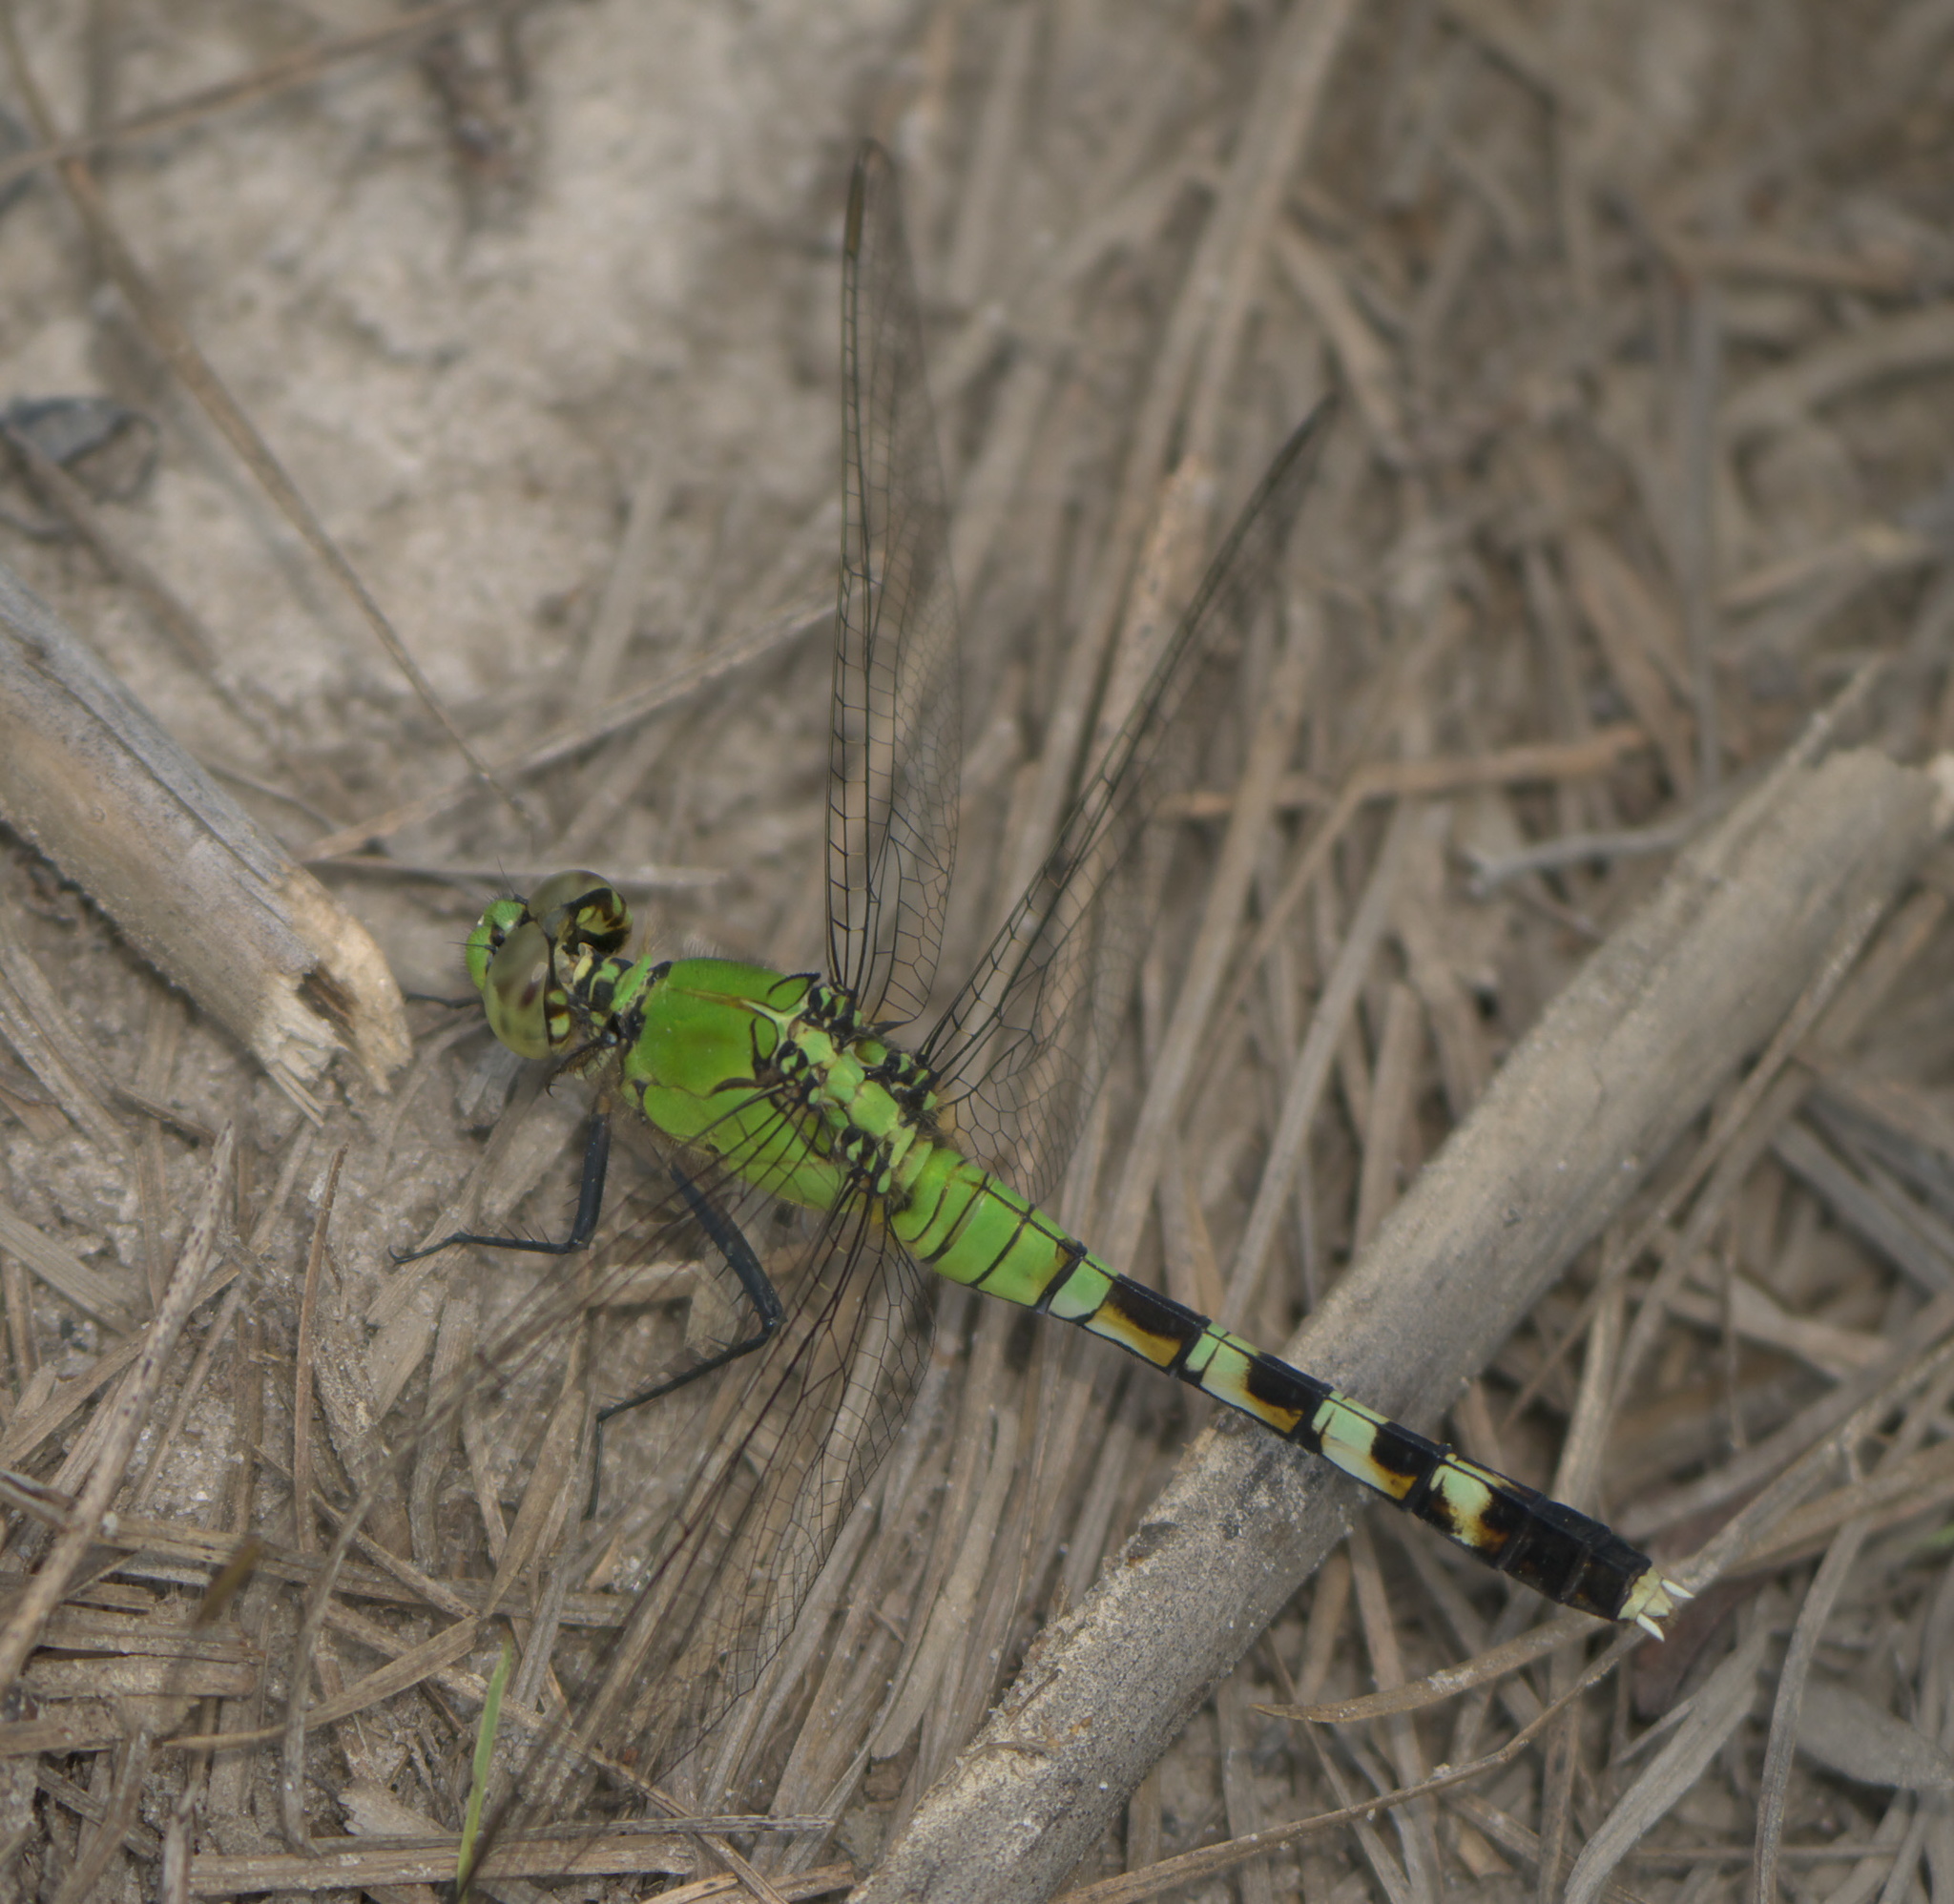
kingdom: Animalia
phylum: Arthropoda
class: Insecta
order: Odonata
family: Libellulidae
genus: Erythemis
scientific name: Erythemis simplicicollis
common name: Eastern pondhawk
